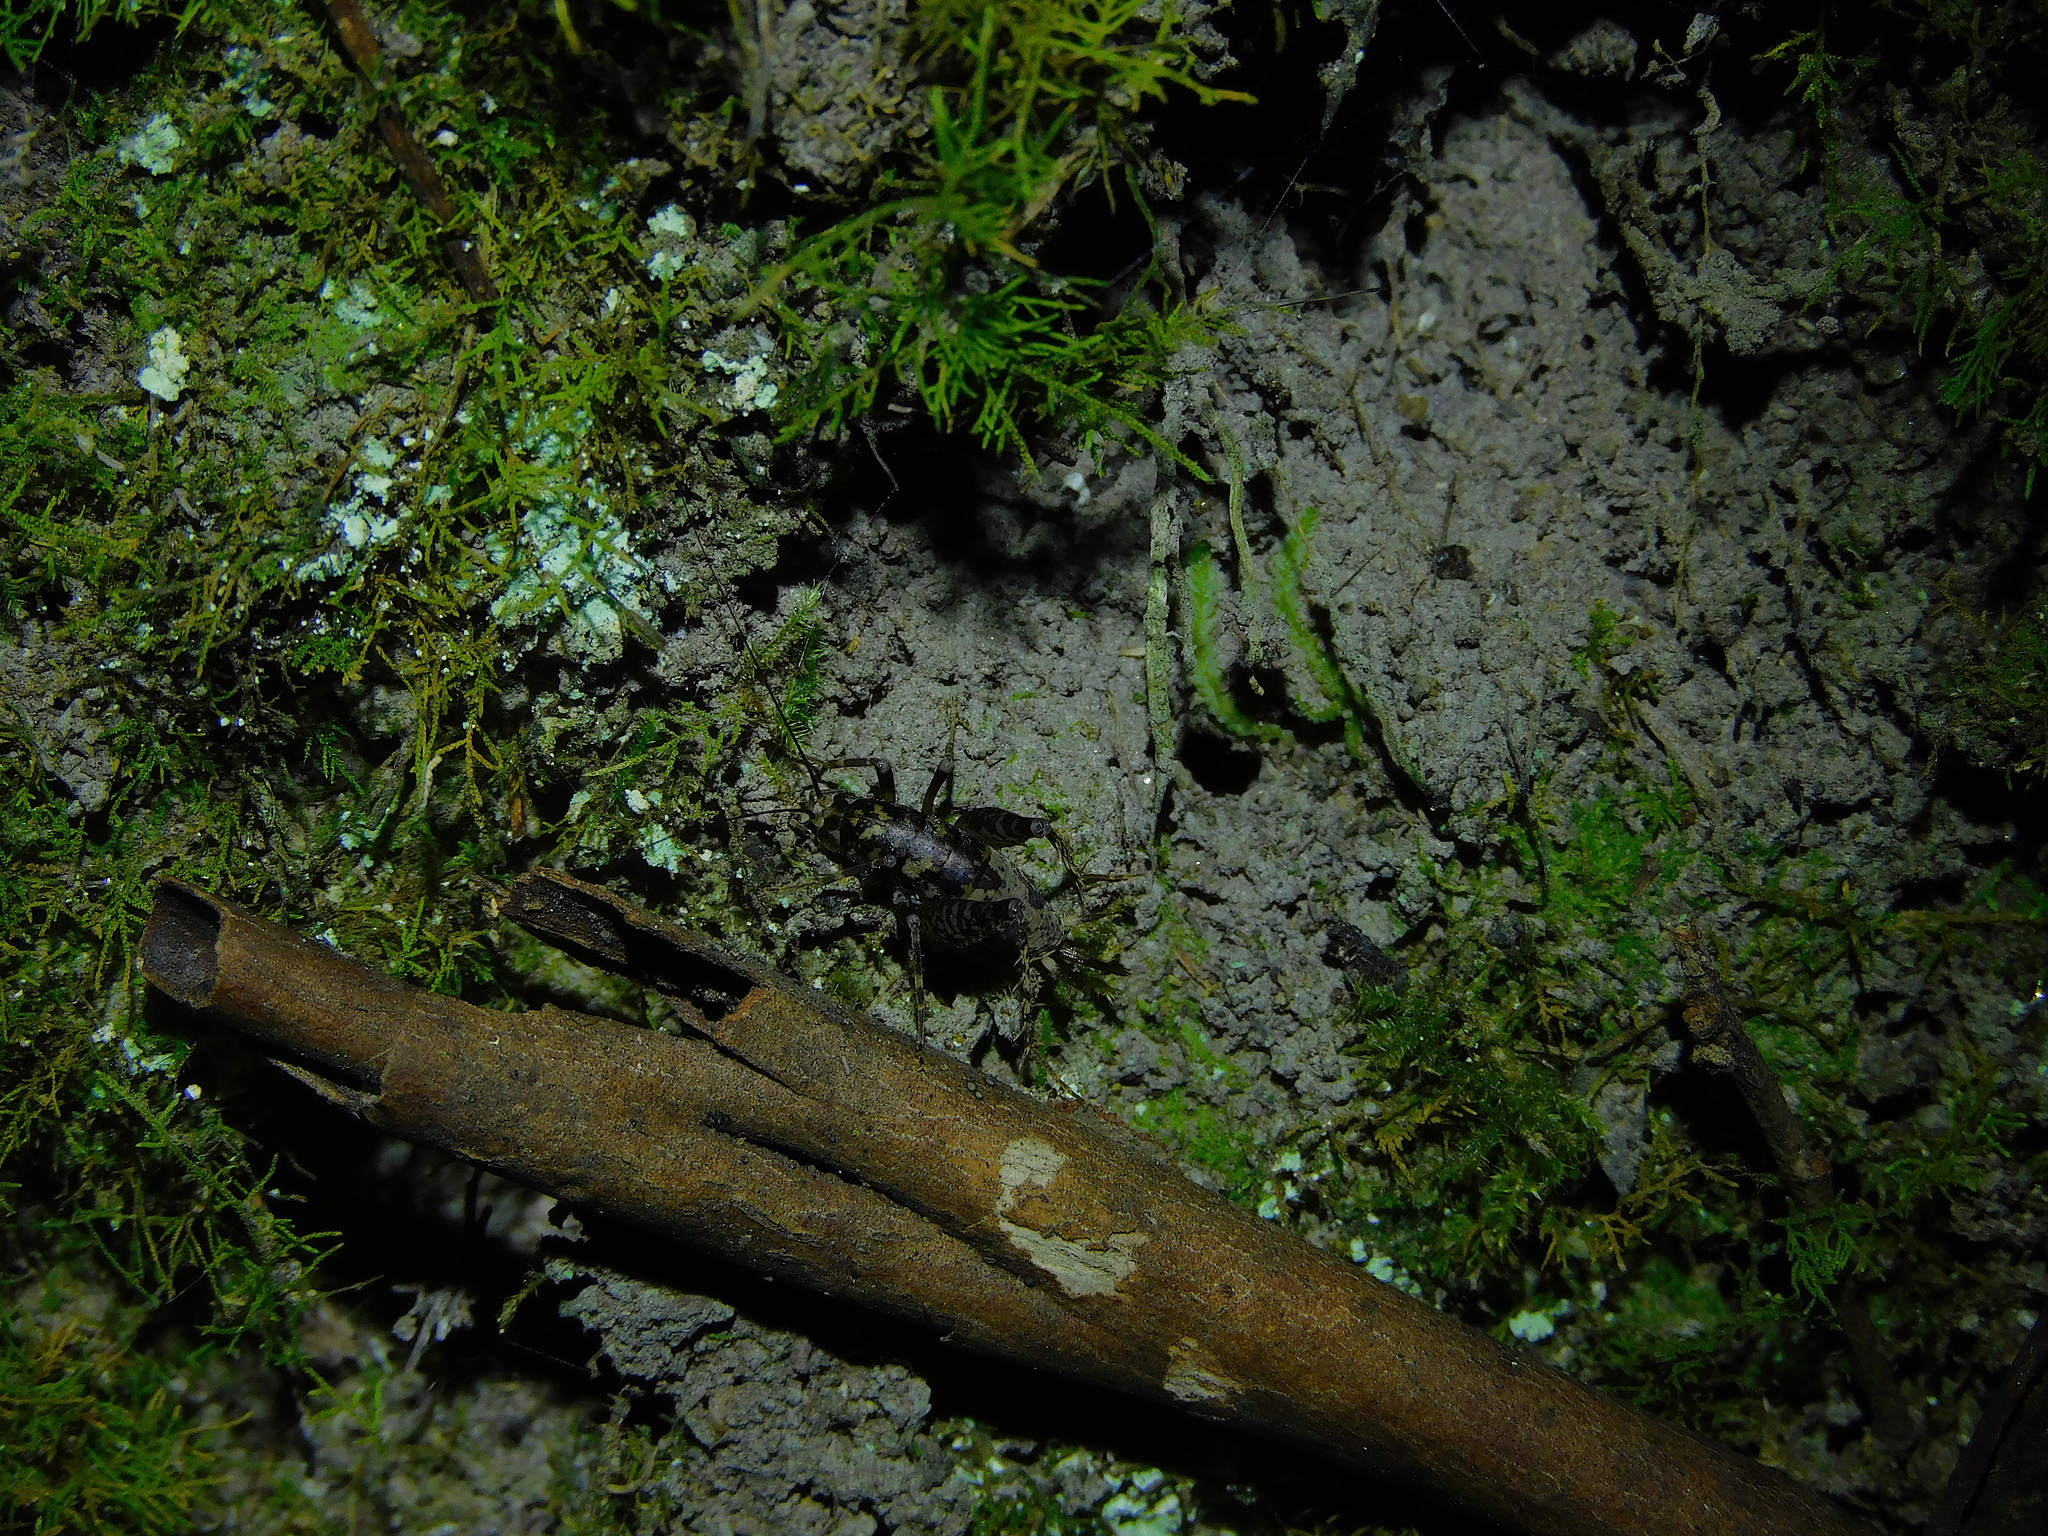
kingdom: Animalia
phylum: Arthropoda
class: Insecta
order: Orthoptera
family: Rhaphidophoridae
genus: Parvotettix
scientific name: Parvotettix domesticus
